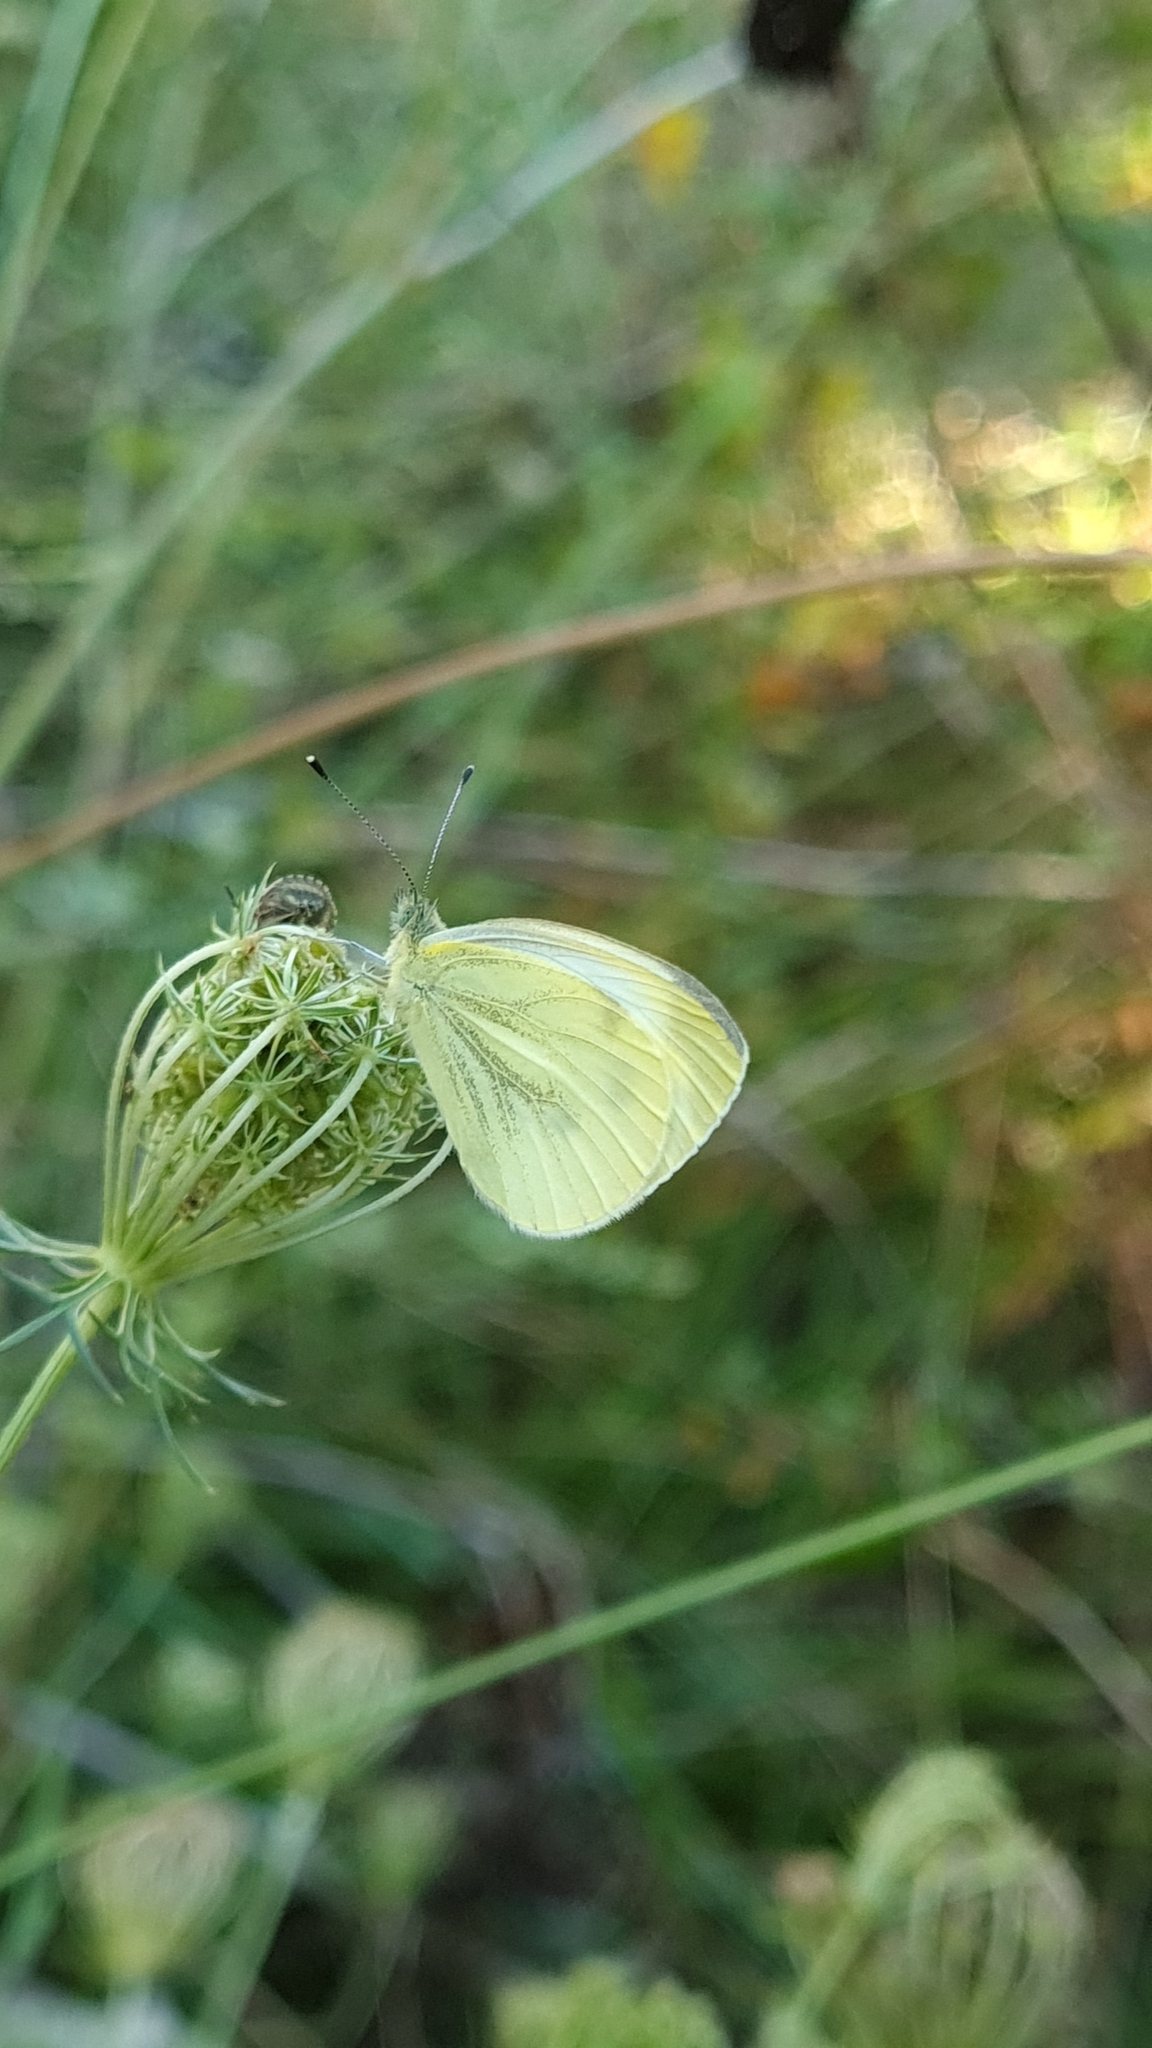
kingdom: Animalia
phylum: Arthropoda
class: Insecta
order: Lepidoptera
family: Pieridae
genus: Pieris
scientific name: Pieris napi
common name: Green-veined white
